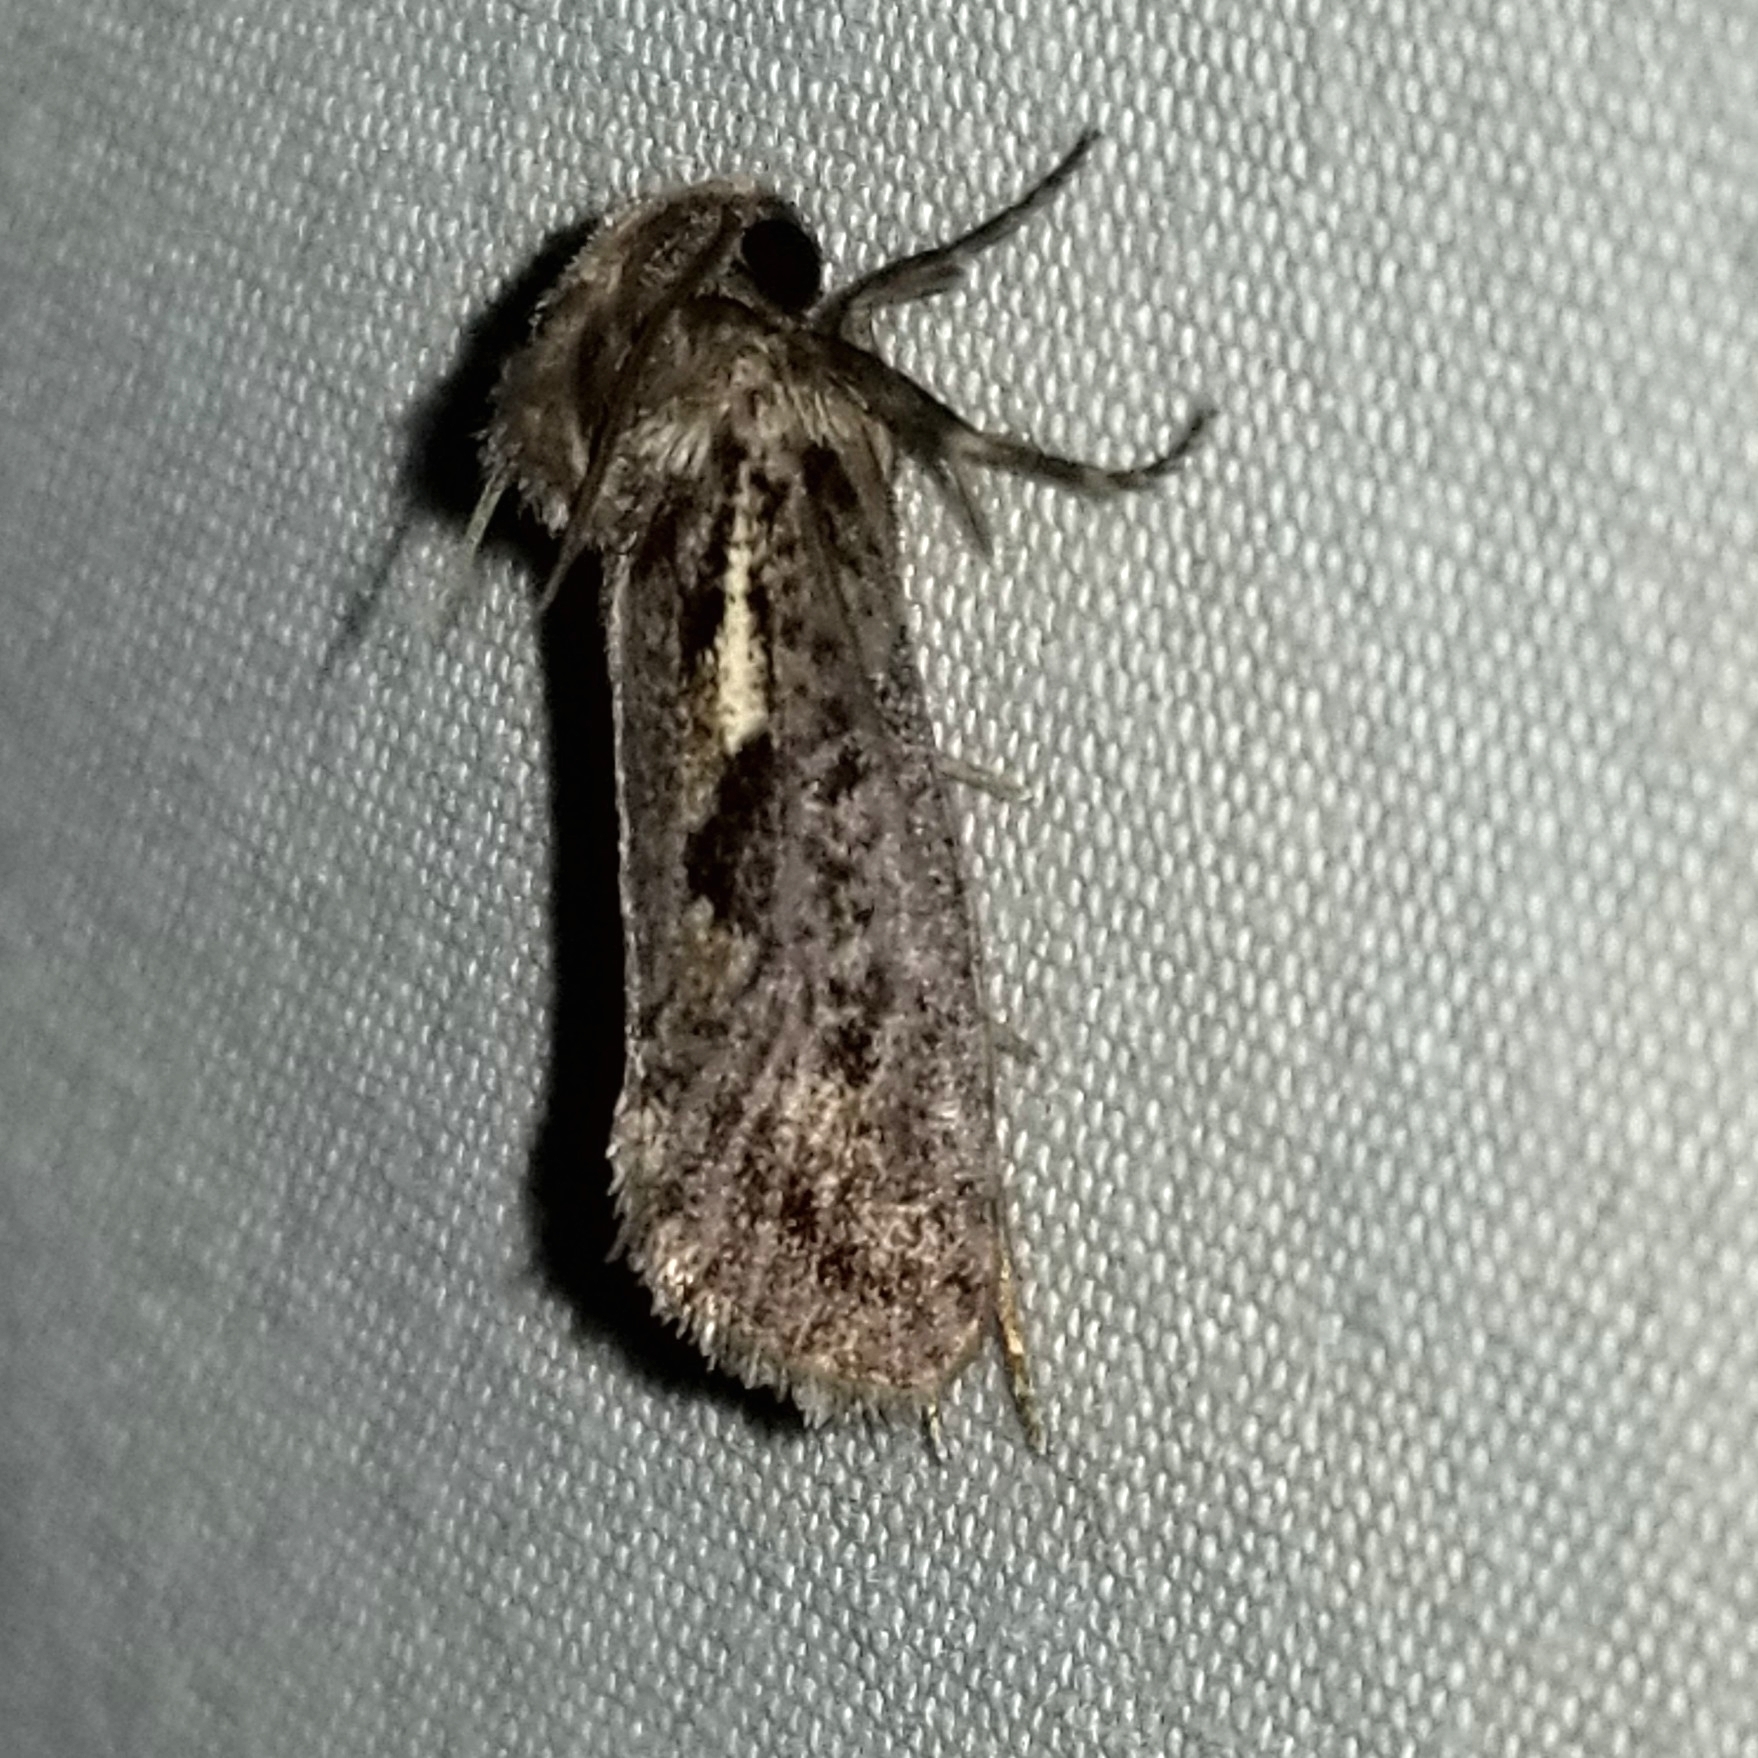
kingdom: Animalia
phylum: Arthropoda
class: Insecta
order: Lepidoptera
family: Tineidae
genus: Acrolophus
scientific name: Acrolophus popeanella
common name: Clemens' grass tubeworm moth
